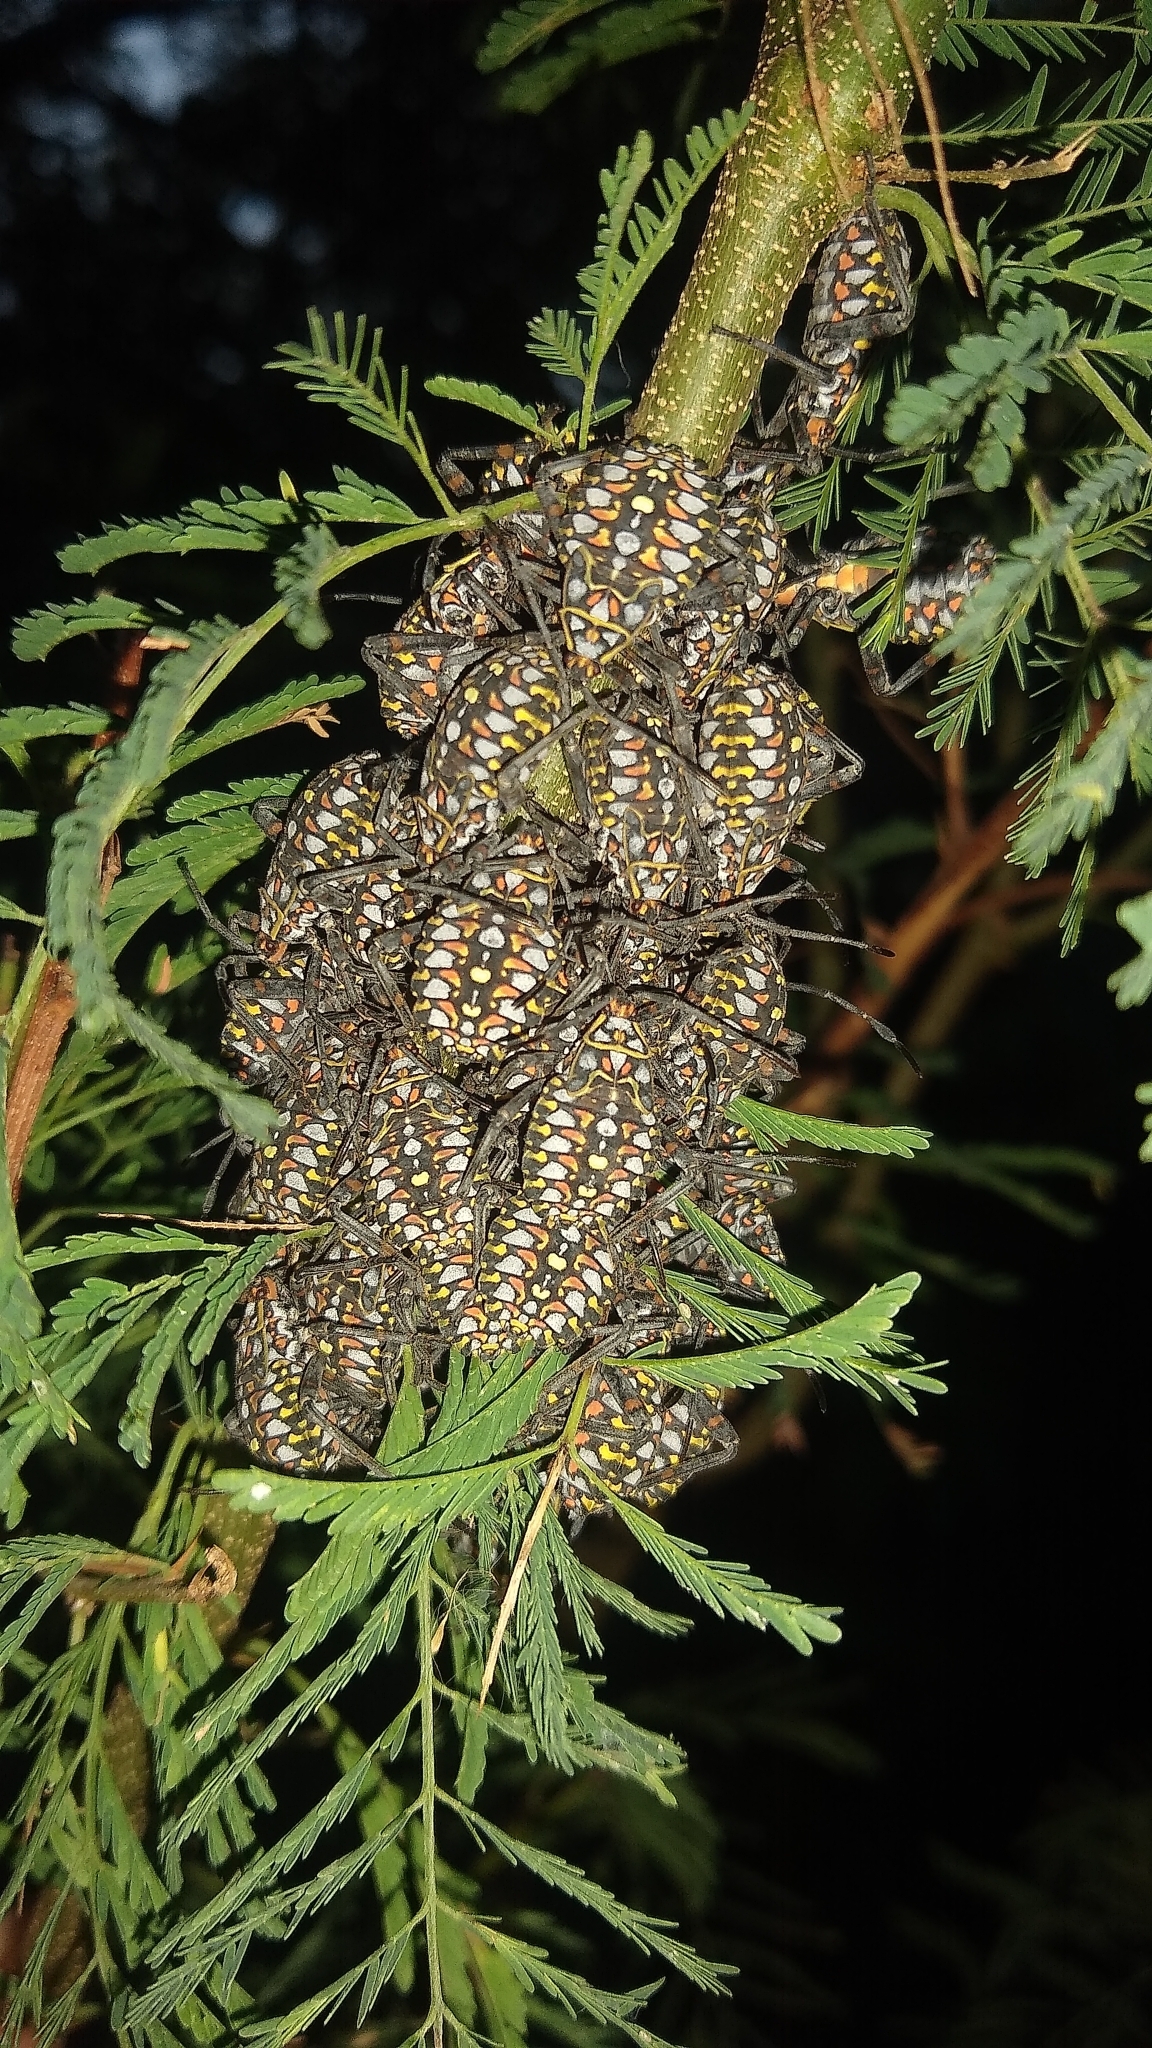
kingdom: Animalia
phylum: Arthropoda
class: Insecta
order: Hemiptera
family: Coreidae
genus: Pachylis
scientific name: Pachylis argentinus
